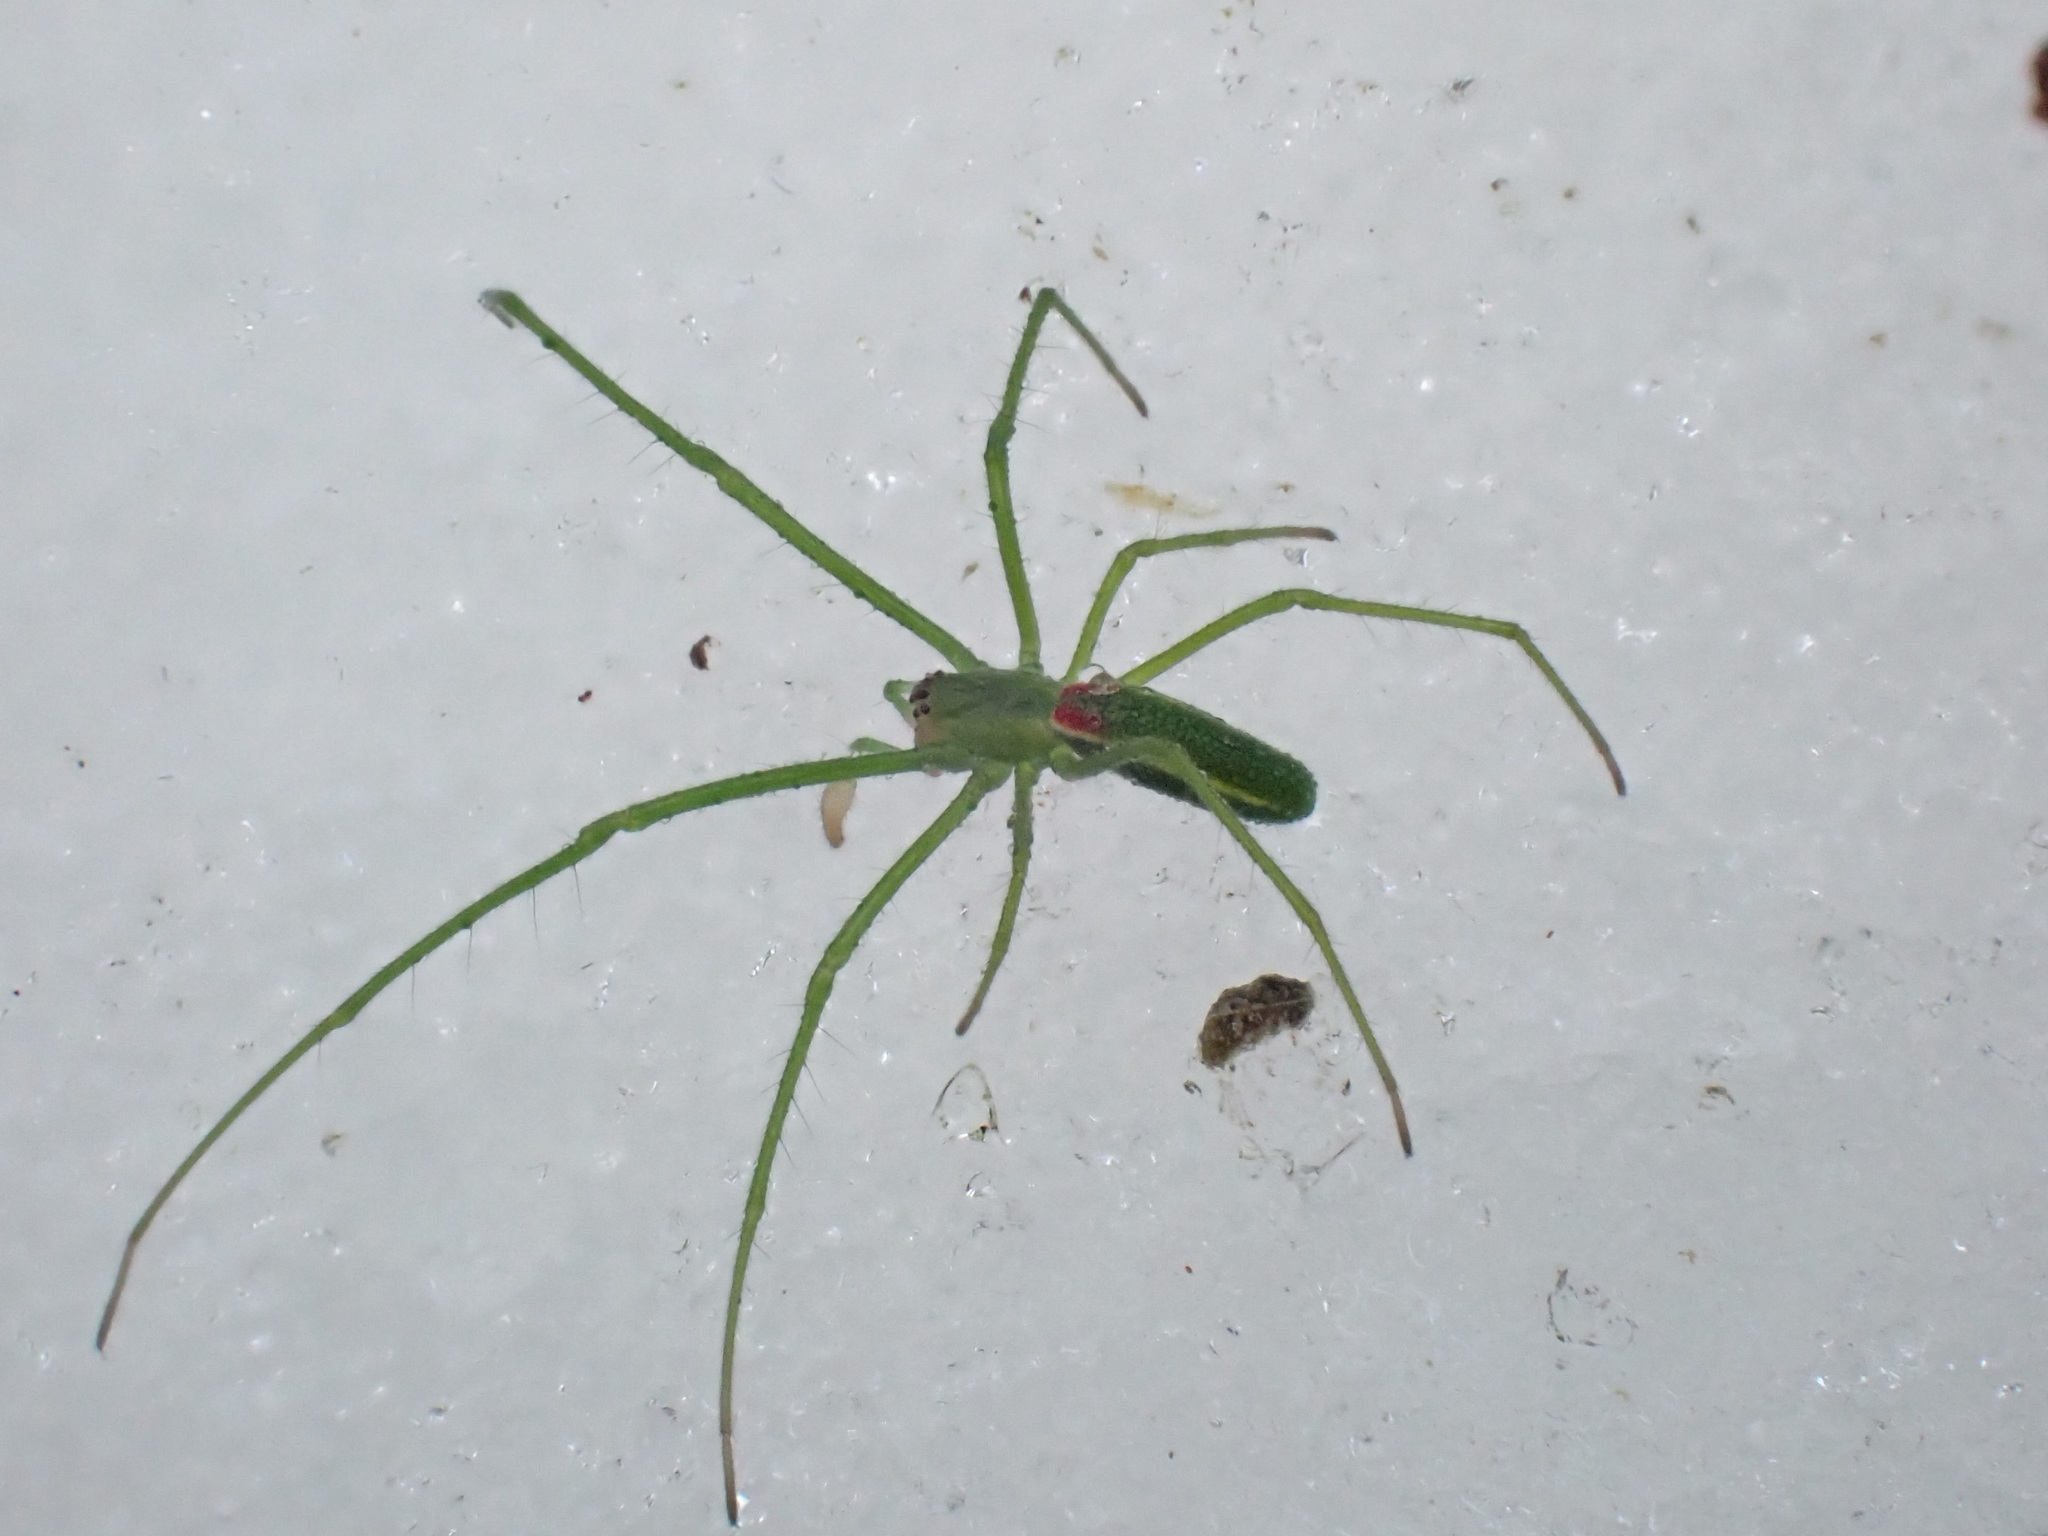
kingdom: Animalia
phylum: Arthropoda
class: Arachnida
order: Araneae
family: Tetragnathidae
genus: Tetragnatha
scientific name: Tetragnatha viridis
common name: Green long-jawed spider
